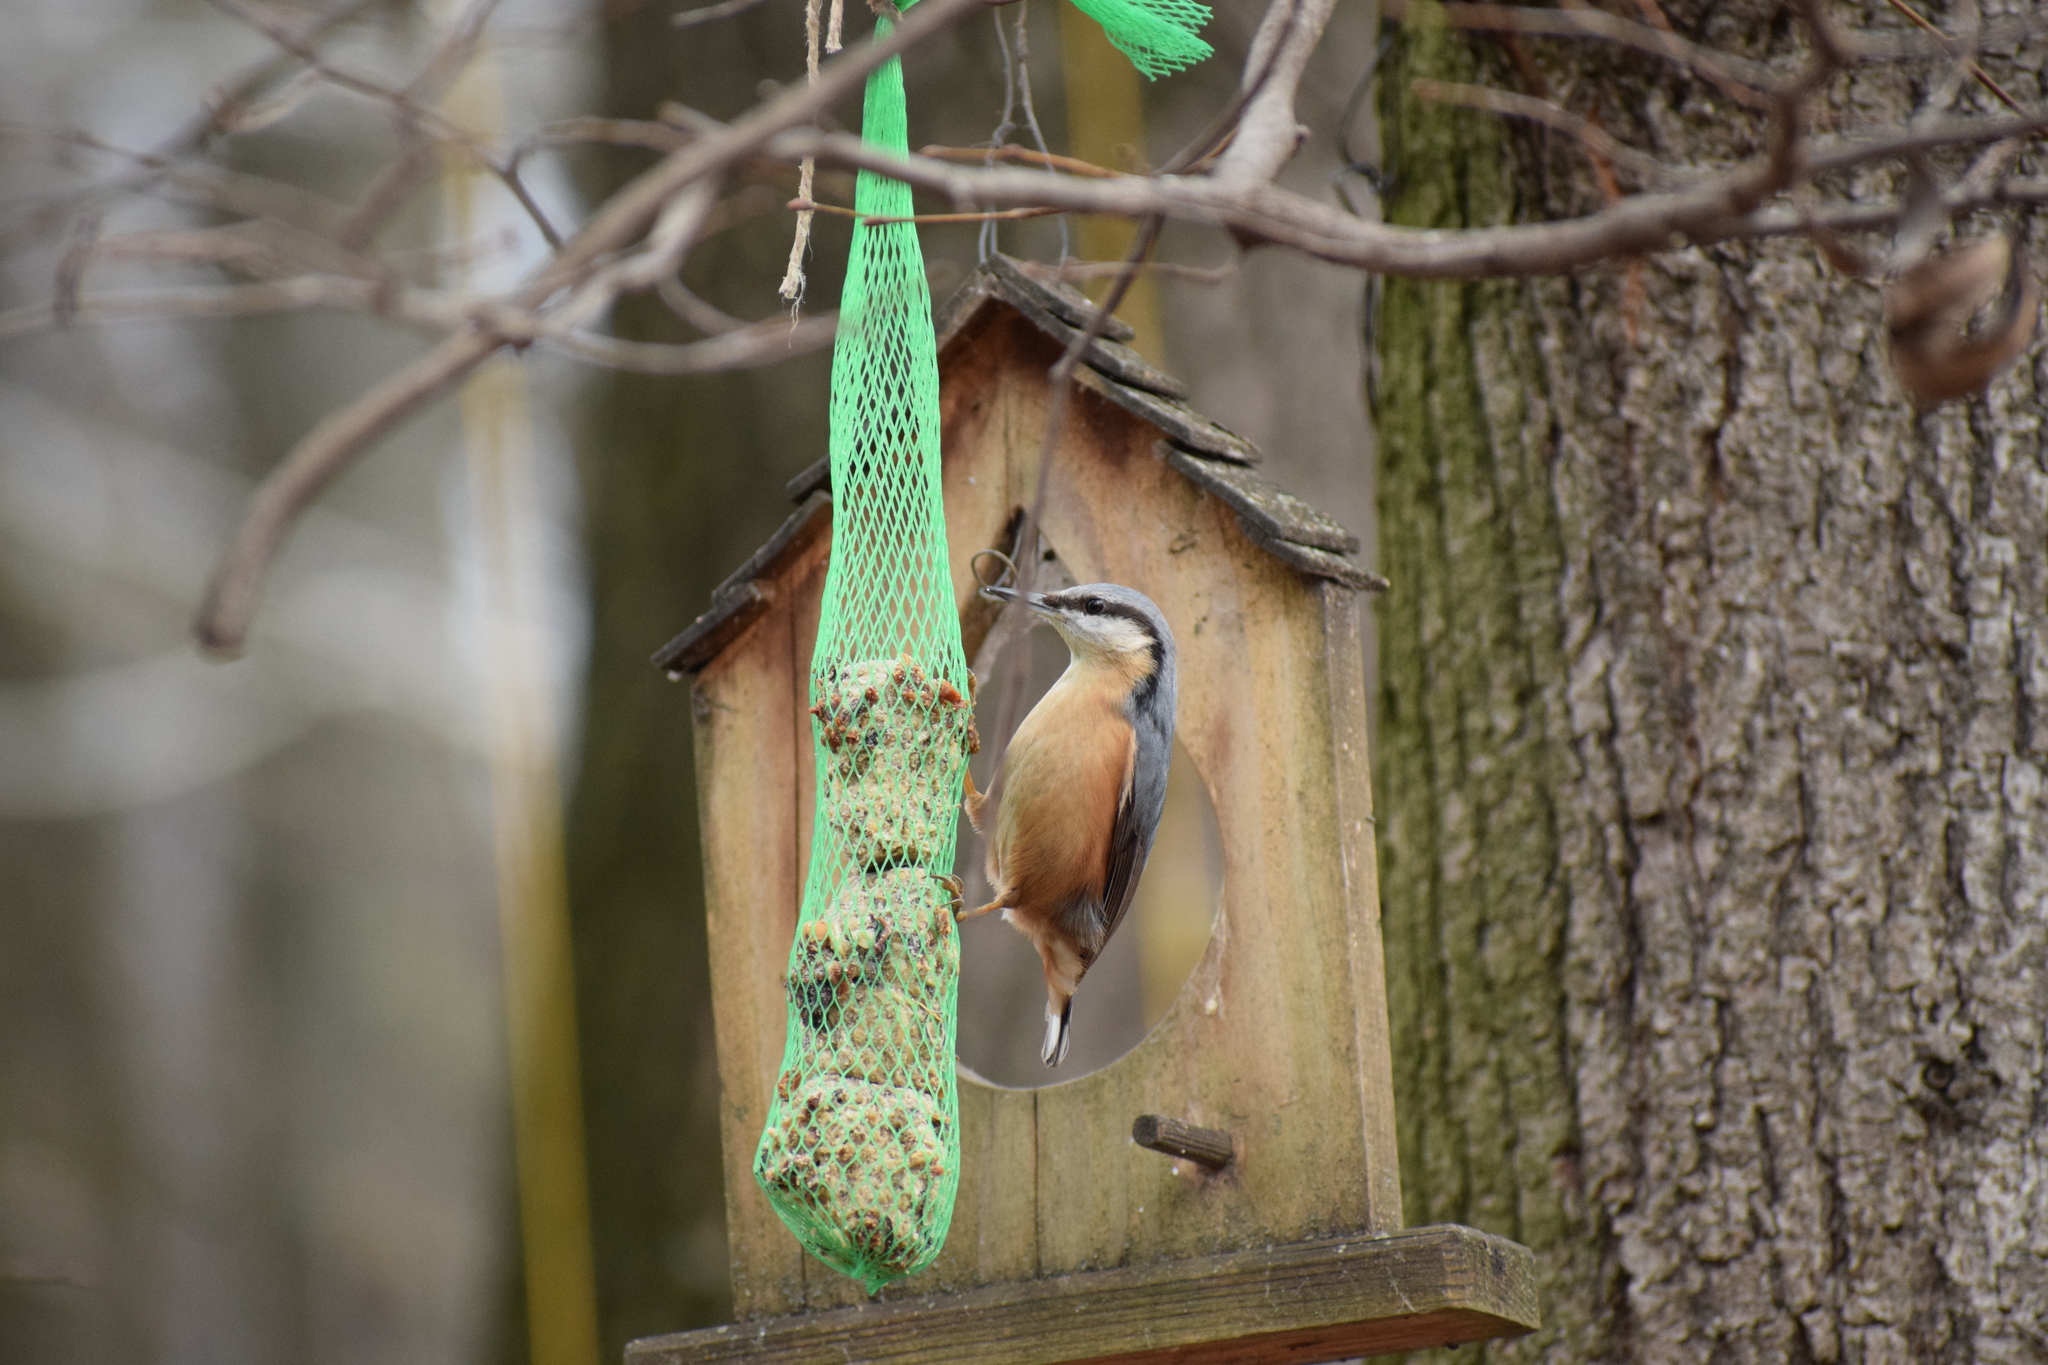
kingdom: Animalia
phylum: Chordata
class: Aves
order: Passeriformes
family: Sittidae
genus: Sitta
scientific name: Sitta europaea
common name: Eurasian nuthatch
